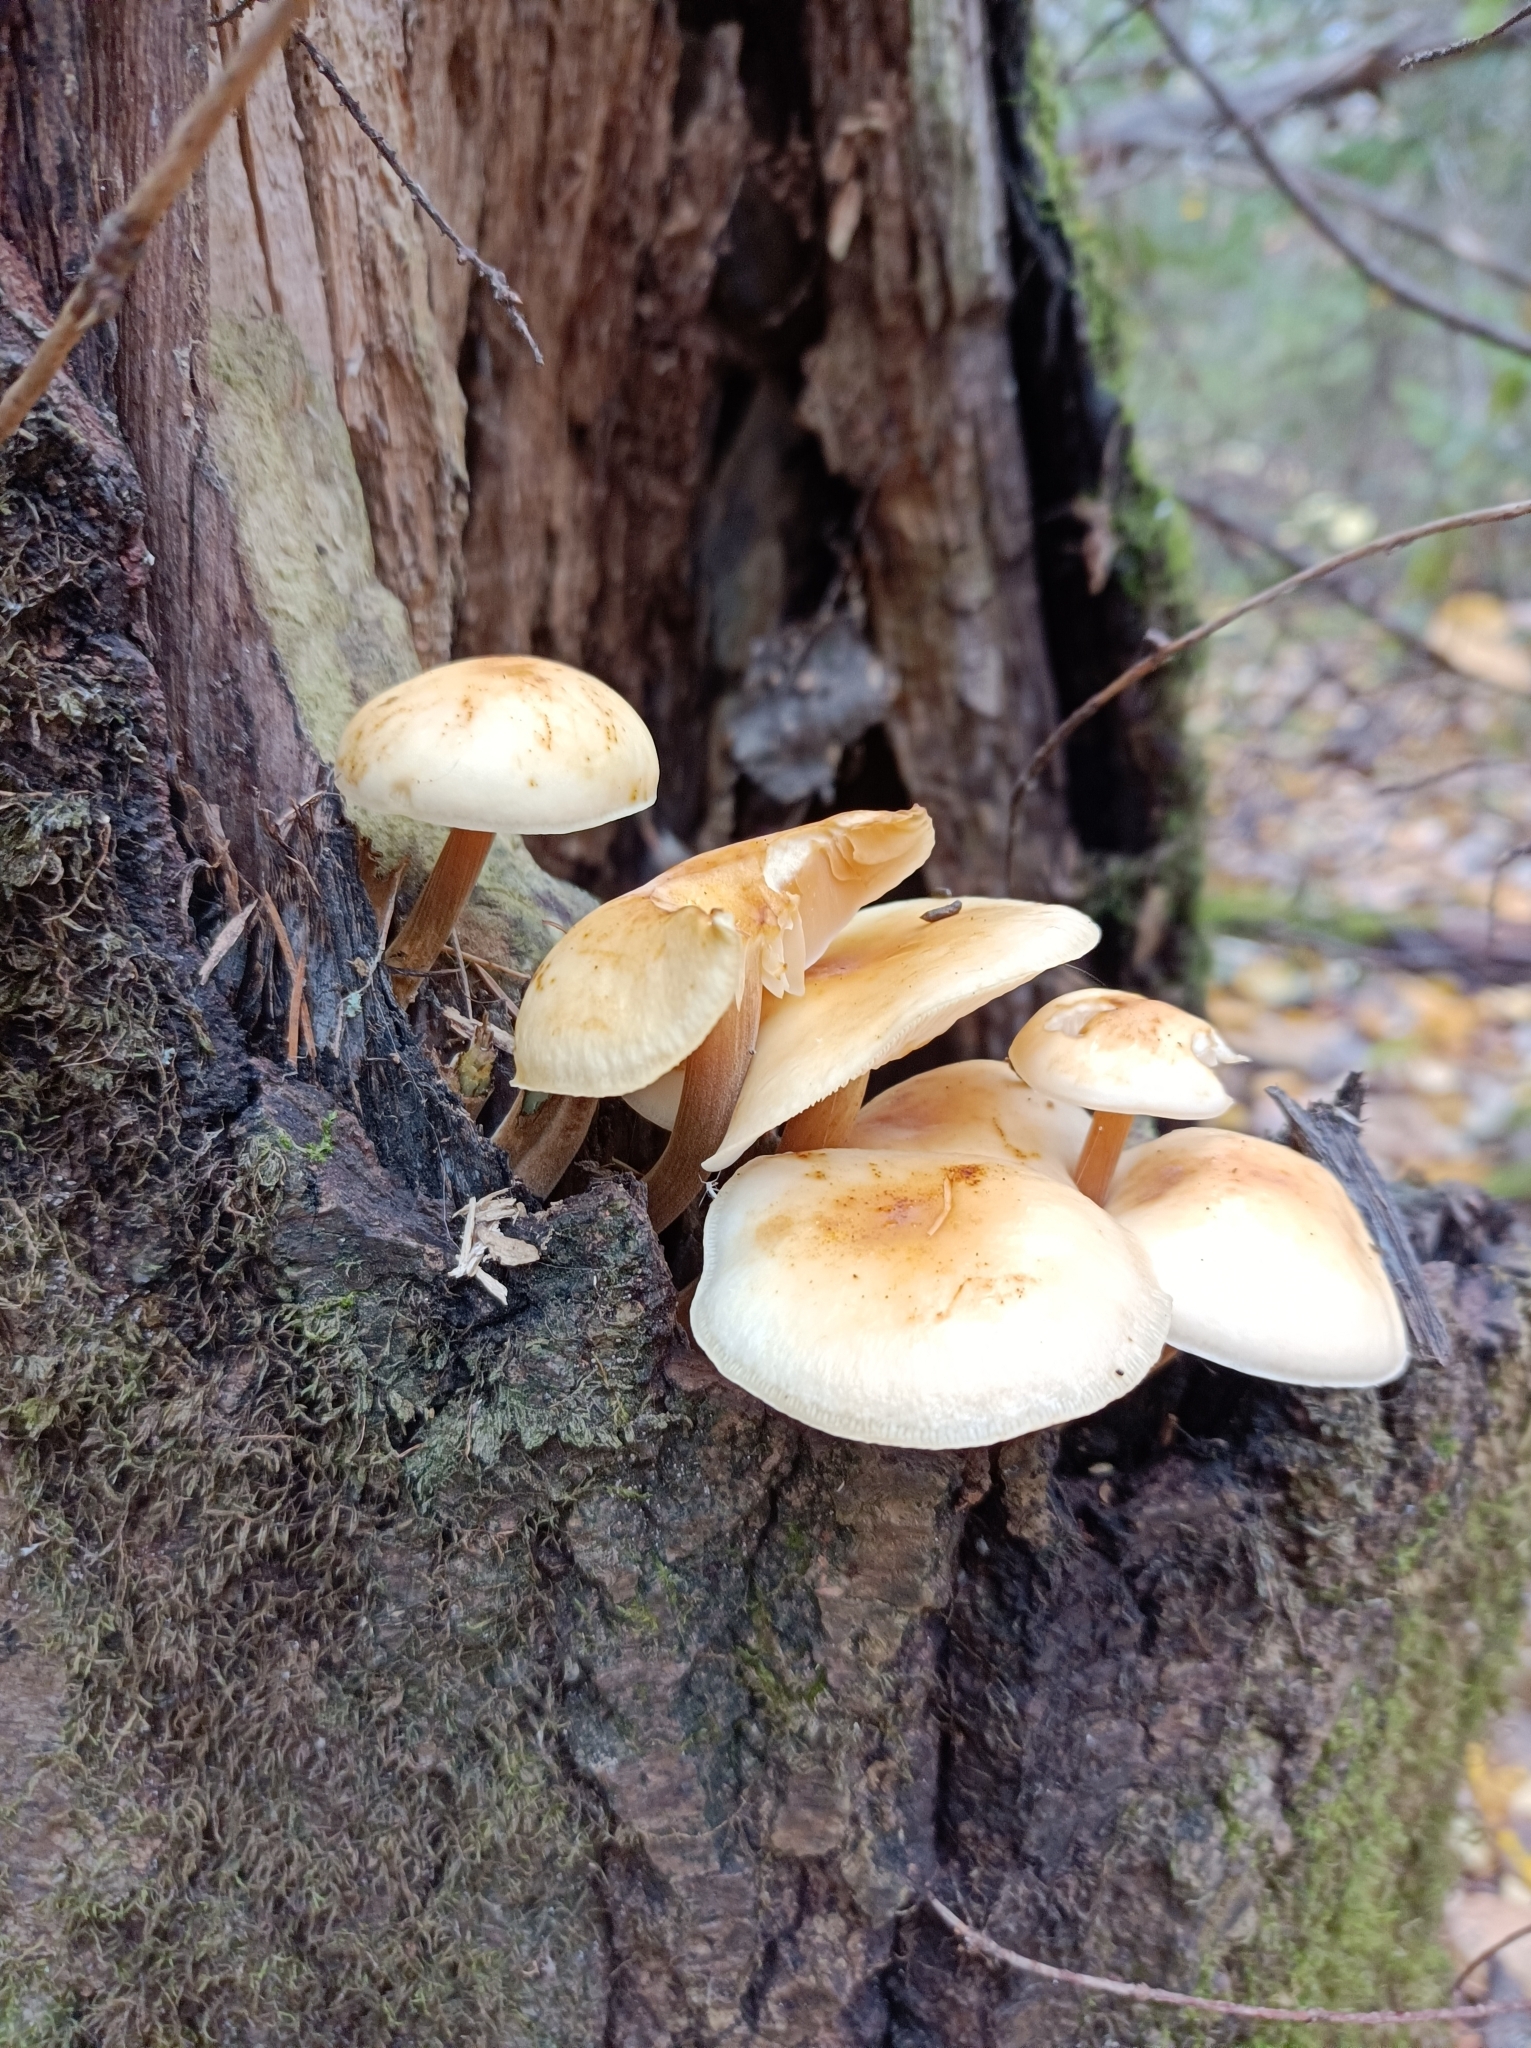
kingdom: Fungi
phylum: Basidiomycota
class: Agaricomycetes
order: Agaricales
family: Physalacriaceae
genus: Flammulina
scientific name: Flammulina
